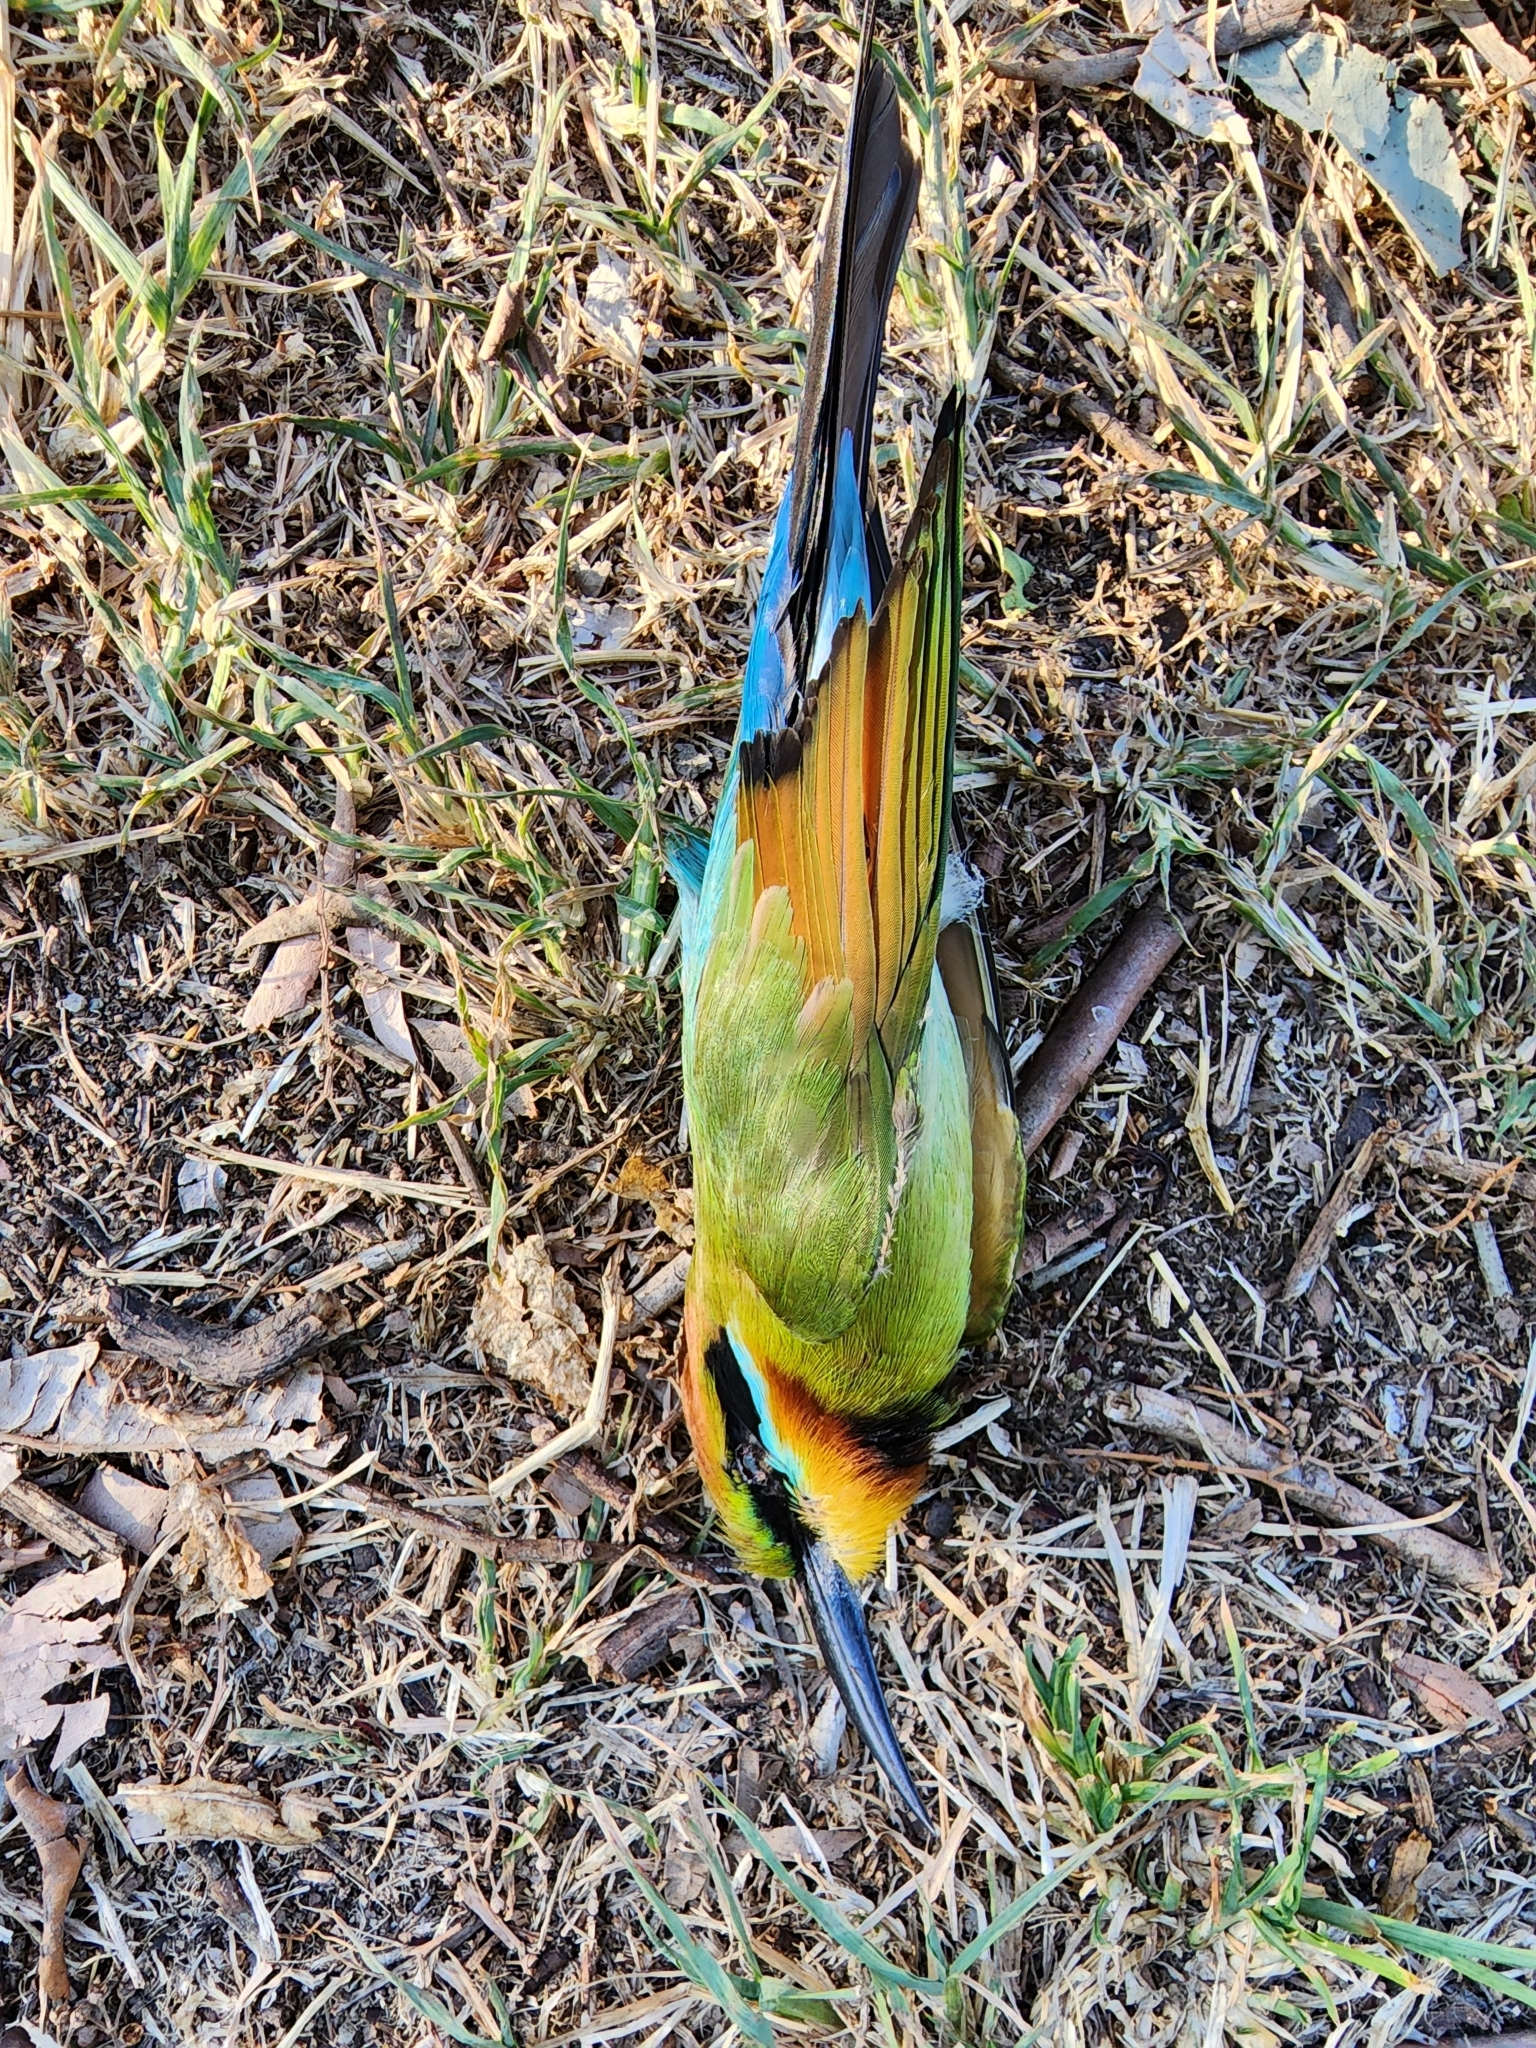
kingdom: Animalia
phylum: Chordata
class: Aves
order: Coraciiformes
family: Meropidae
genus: Merops
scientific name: Merops ornatus
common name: Rainbow bee-eater
